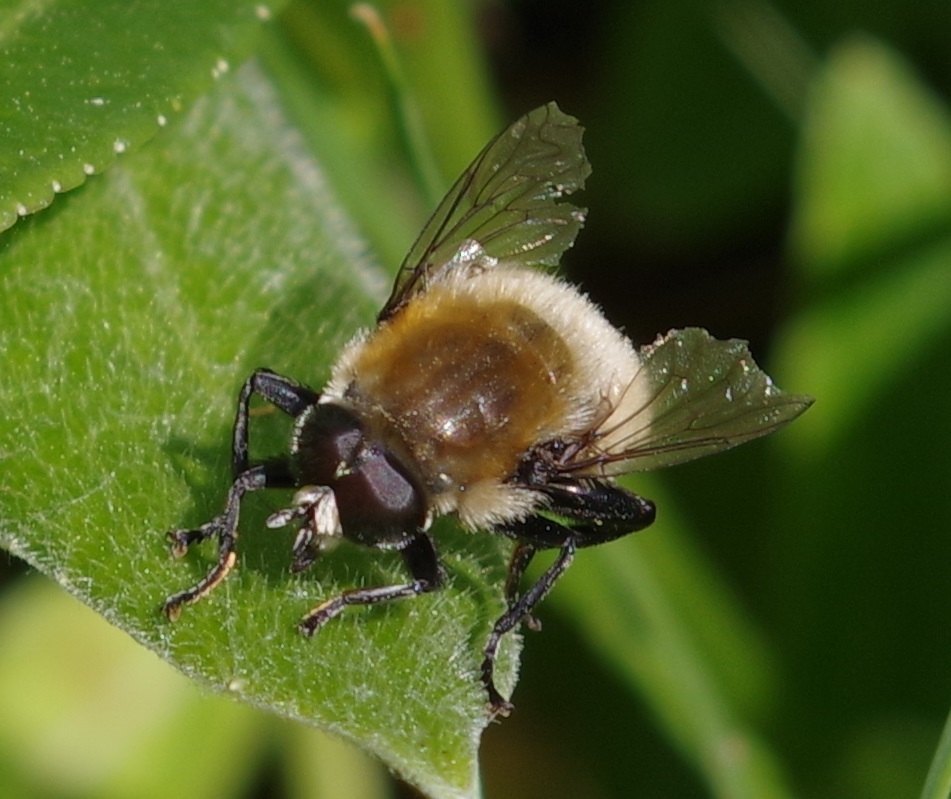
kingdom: Animalia
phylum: Arthropoda
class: Insecta
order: Diptera
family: Syrphidae
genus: Merodon
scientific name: Merodon equestris
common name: Greater bulb-fly
